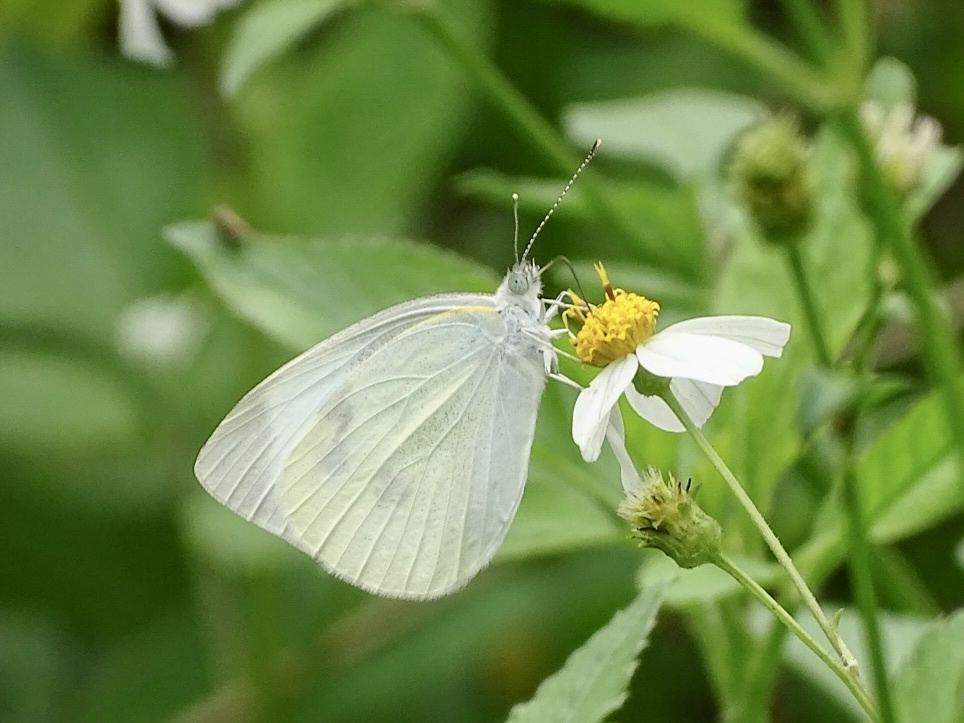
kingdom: Animalia
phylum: Arthropoda
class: Insecta
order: Lepidoptera
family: Pieridae
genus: Pieris
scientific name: Pieris rapae
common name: Small white
